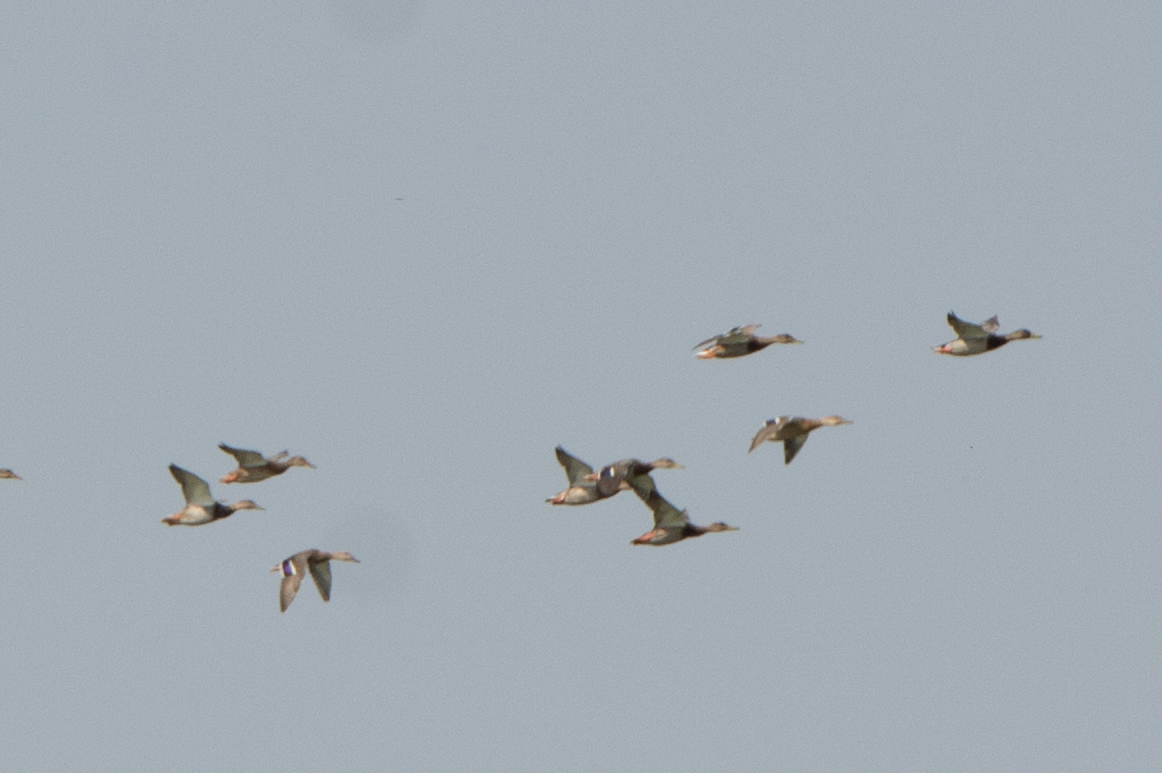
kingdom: Animalia
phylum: Chordata
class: Aves
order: Anseriformes
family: Anatidae
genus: Anas
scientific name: Anas platyrhynchos
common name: Mallard
